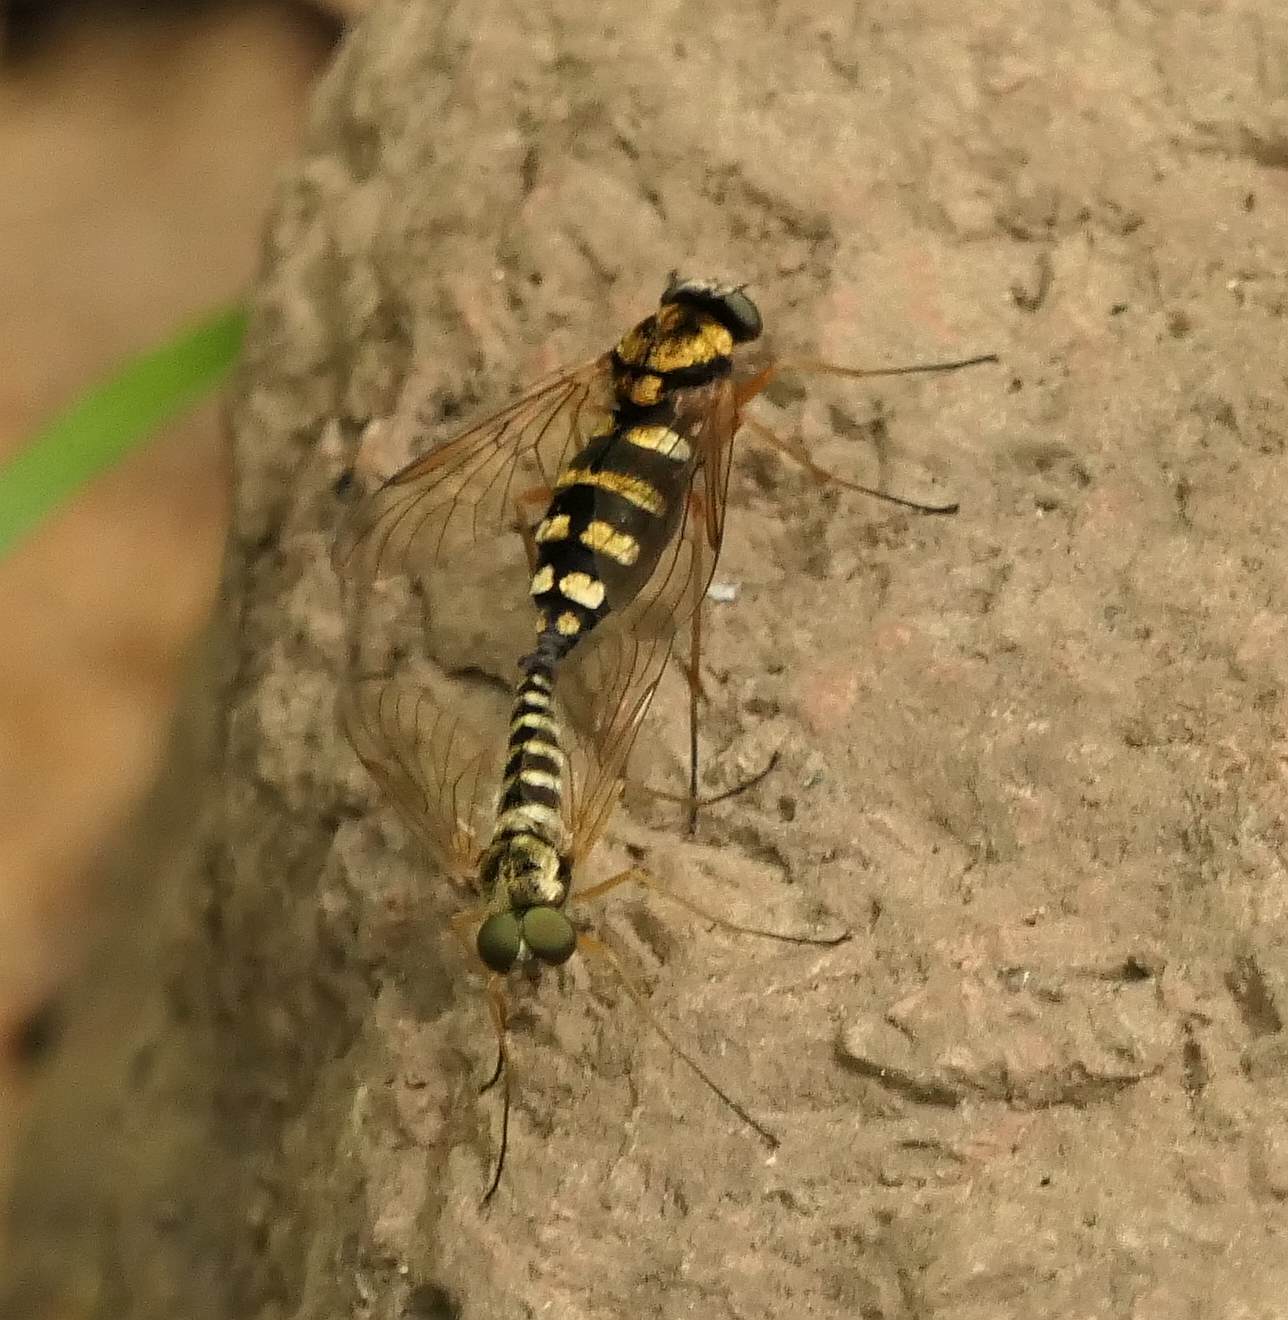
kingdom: Animalia
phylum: Arthropoda
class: Insecta
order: Diptera
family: Rhagionidae
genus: Chrysopilus
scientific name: Chrysopilus ornatus
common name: Ornate snipe fly
